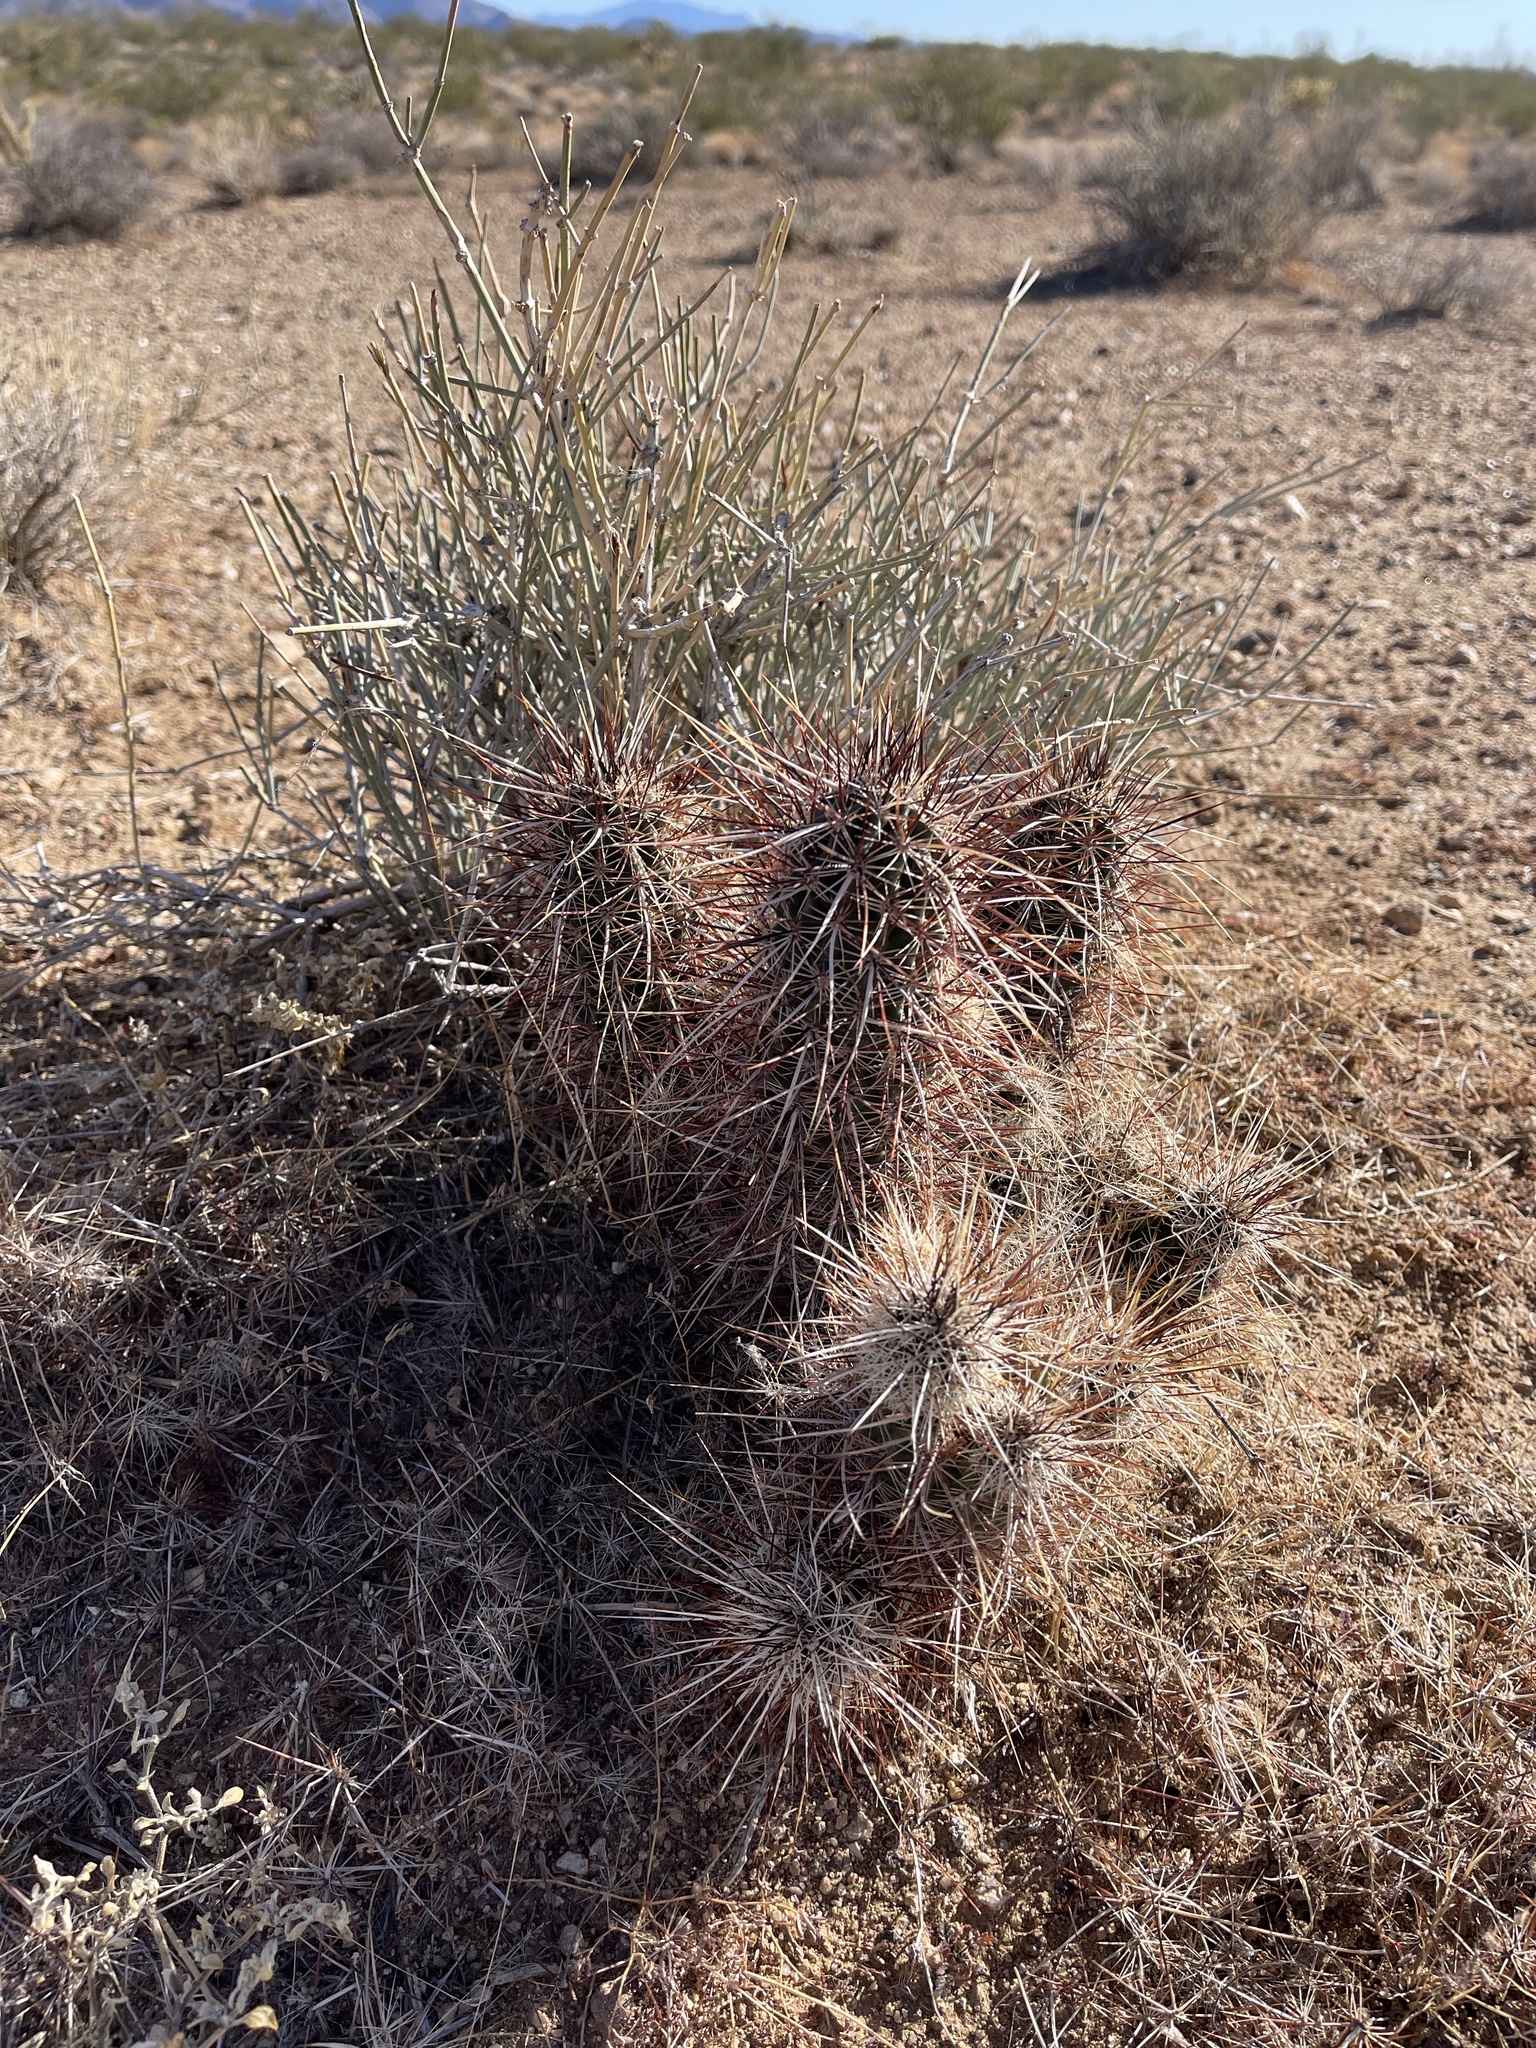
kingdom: Plantae
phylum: Tracheophyta
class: Magnoliopsida
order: Caryophyllales
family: Cactaceae
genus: Echinocereus
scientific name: Echinocereus engelmannii
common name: Engelmann's hedgehog cactus
